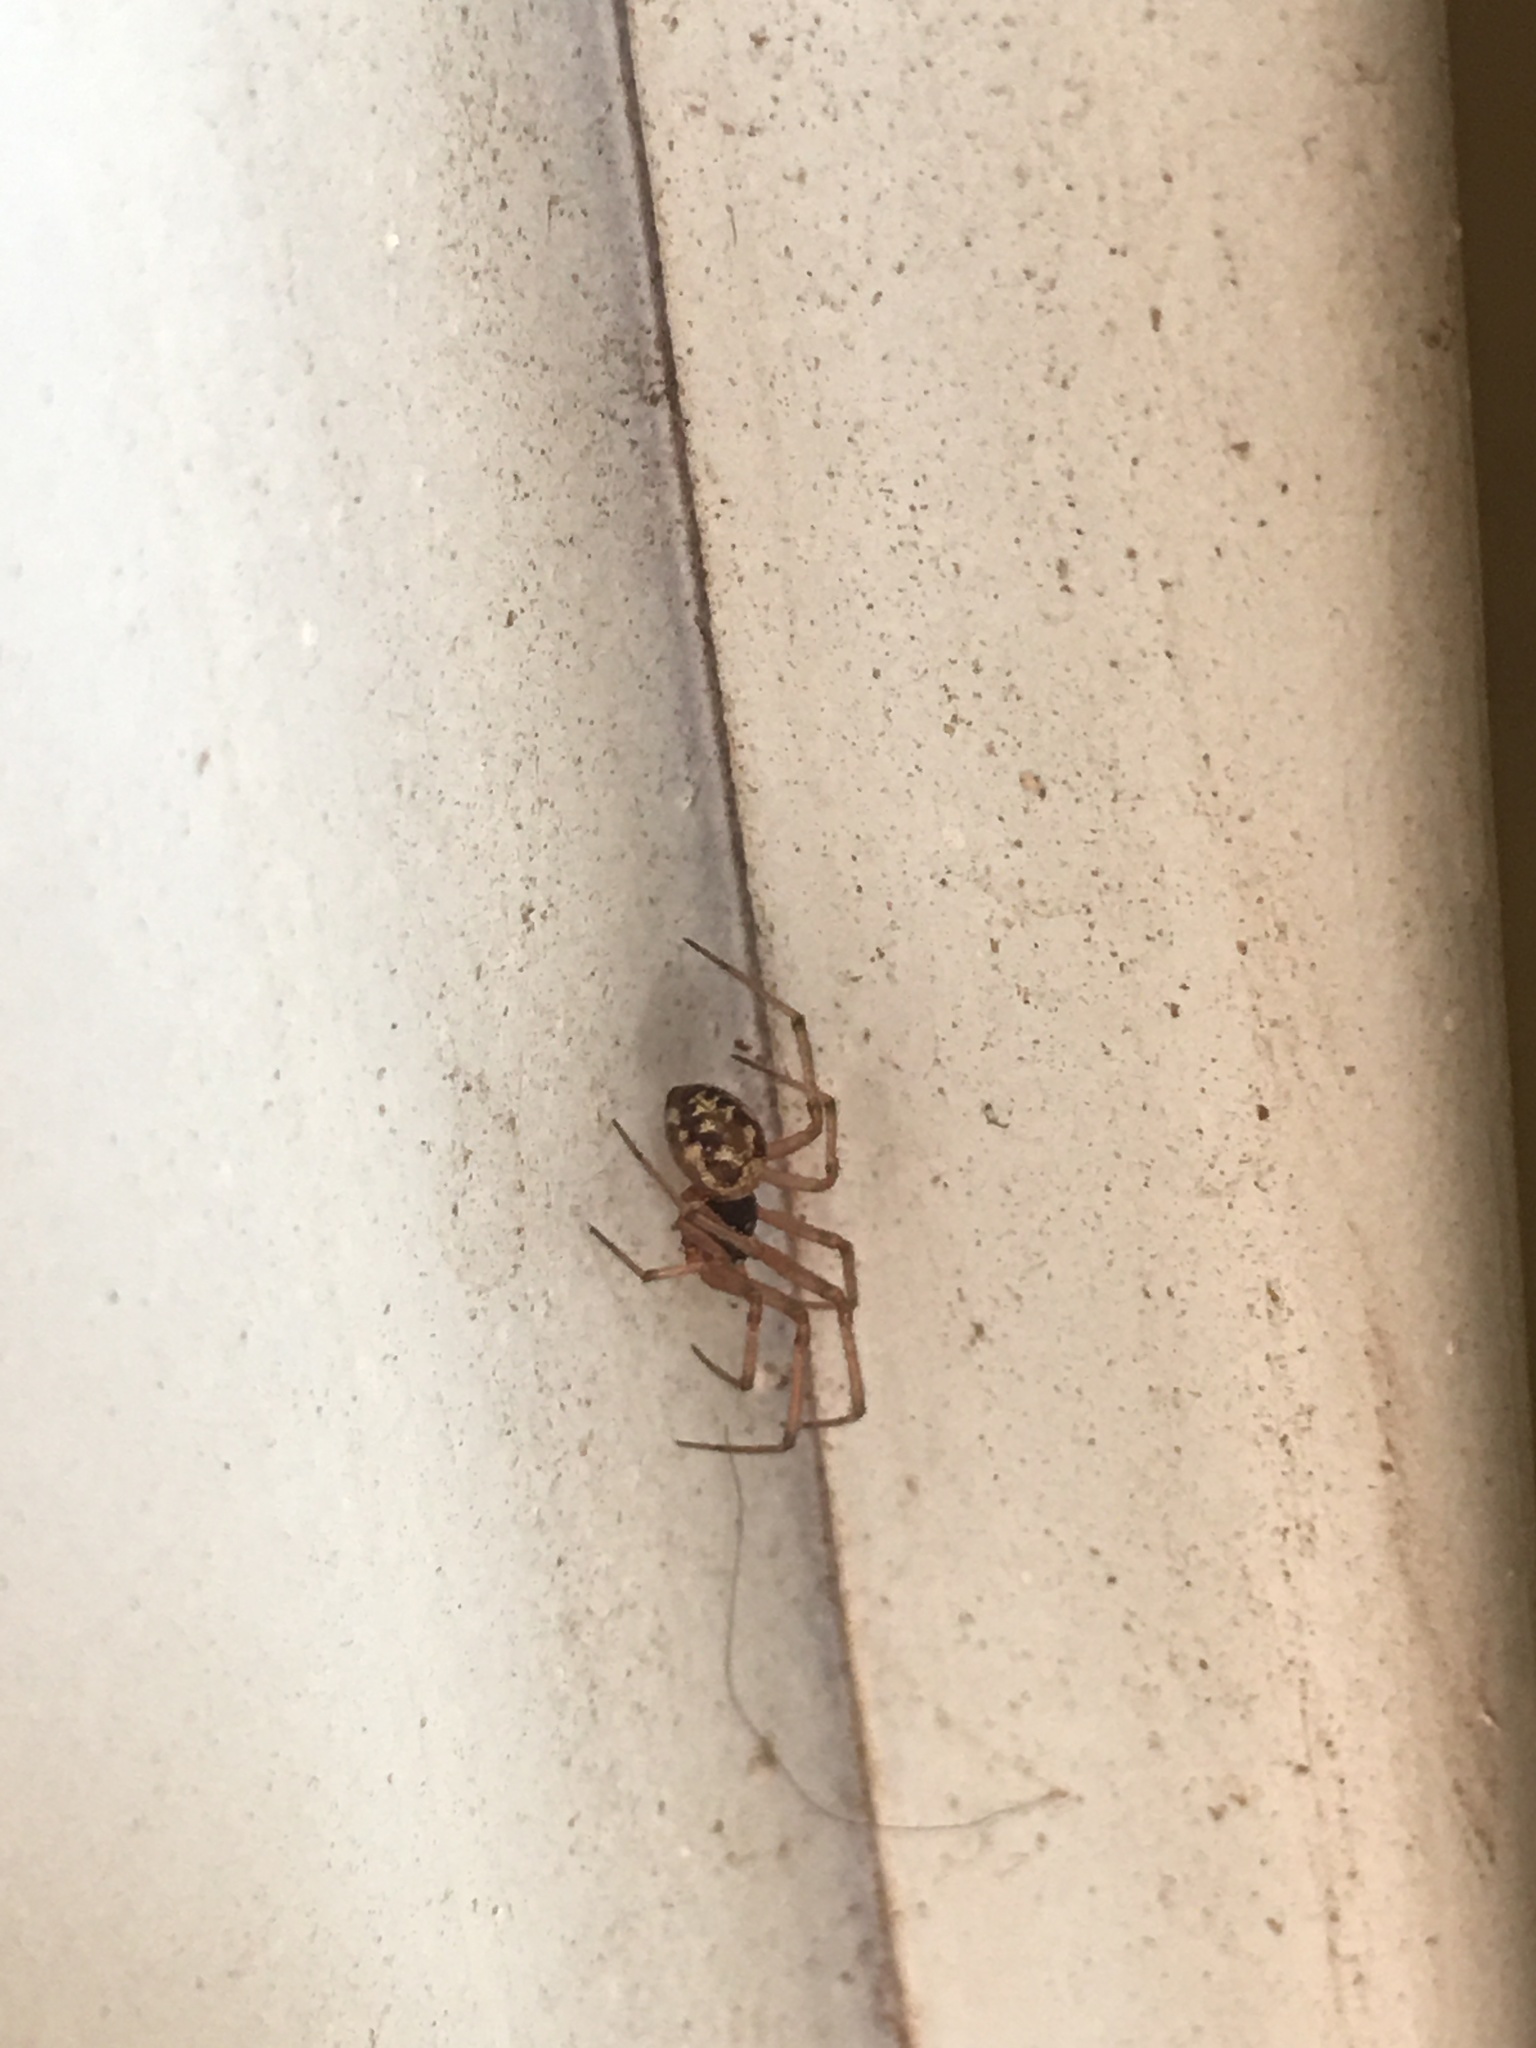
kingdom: Animalia
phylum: Arthropoda
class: Arachnida
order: Araneae
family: Theridiidae
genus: Steatoda
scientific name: Steatoda triangulosa
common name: Triangulate bud spider
